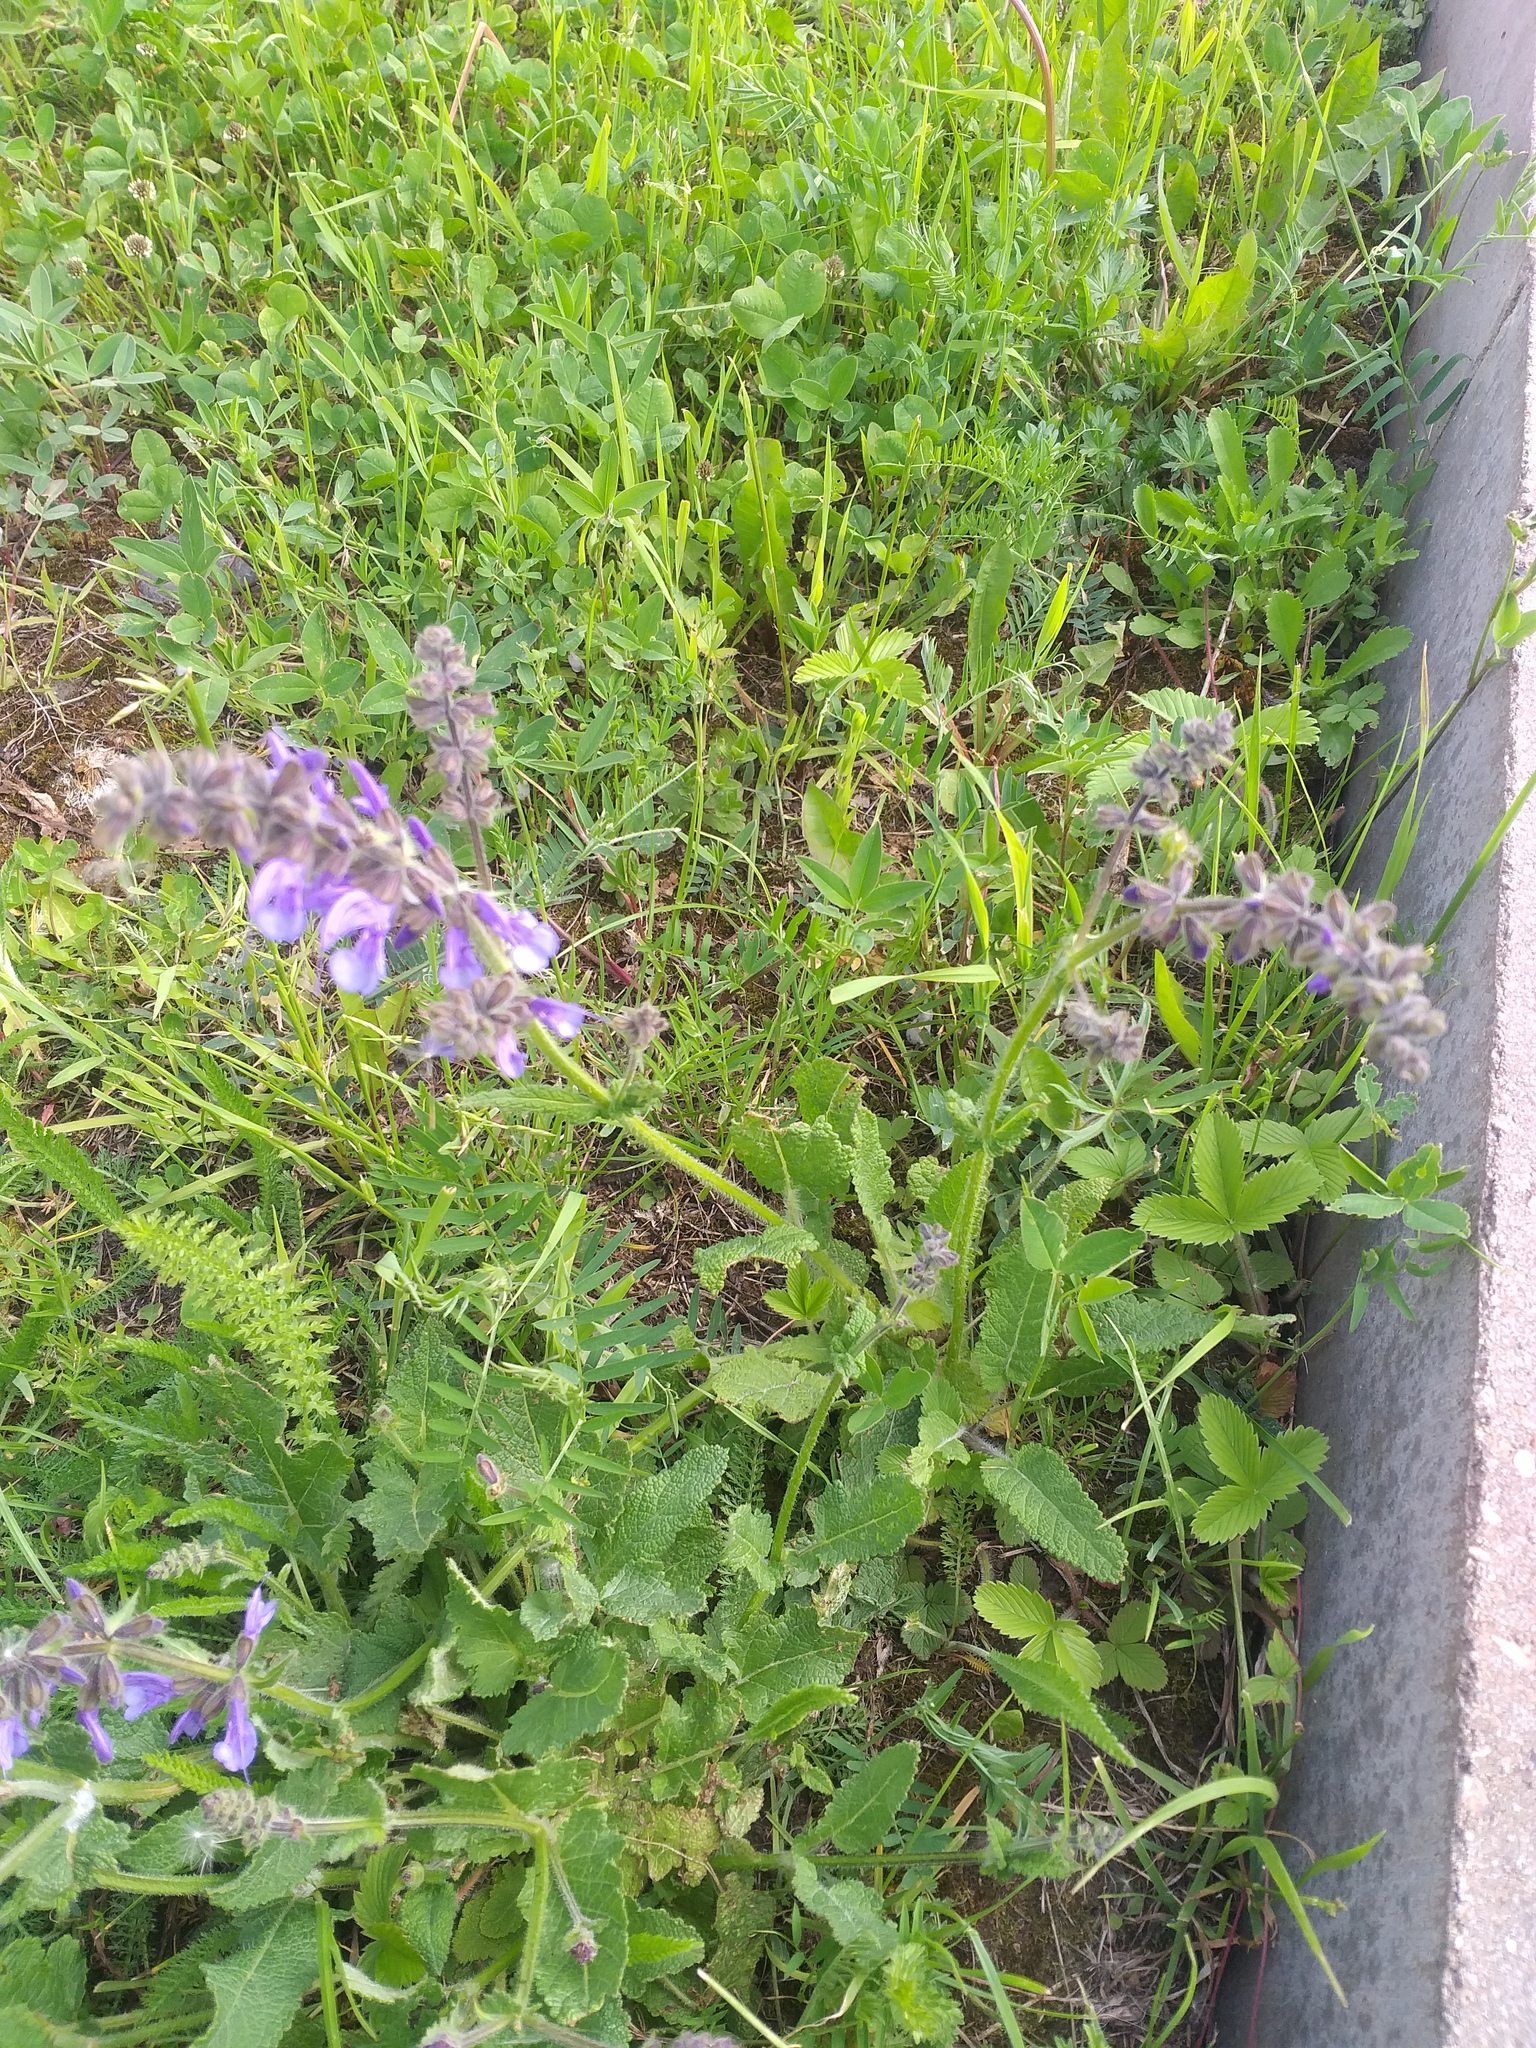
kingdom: Plantae
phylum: Tracheophyta
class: Magnoliopsida
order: Lamiales
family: Lamiaceae
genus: Salvia
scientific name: Salvia pratensis
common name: Meadow sage
